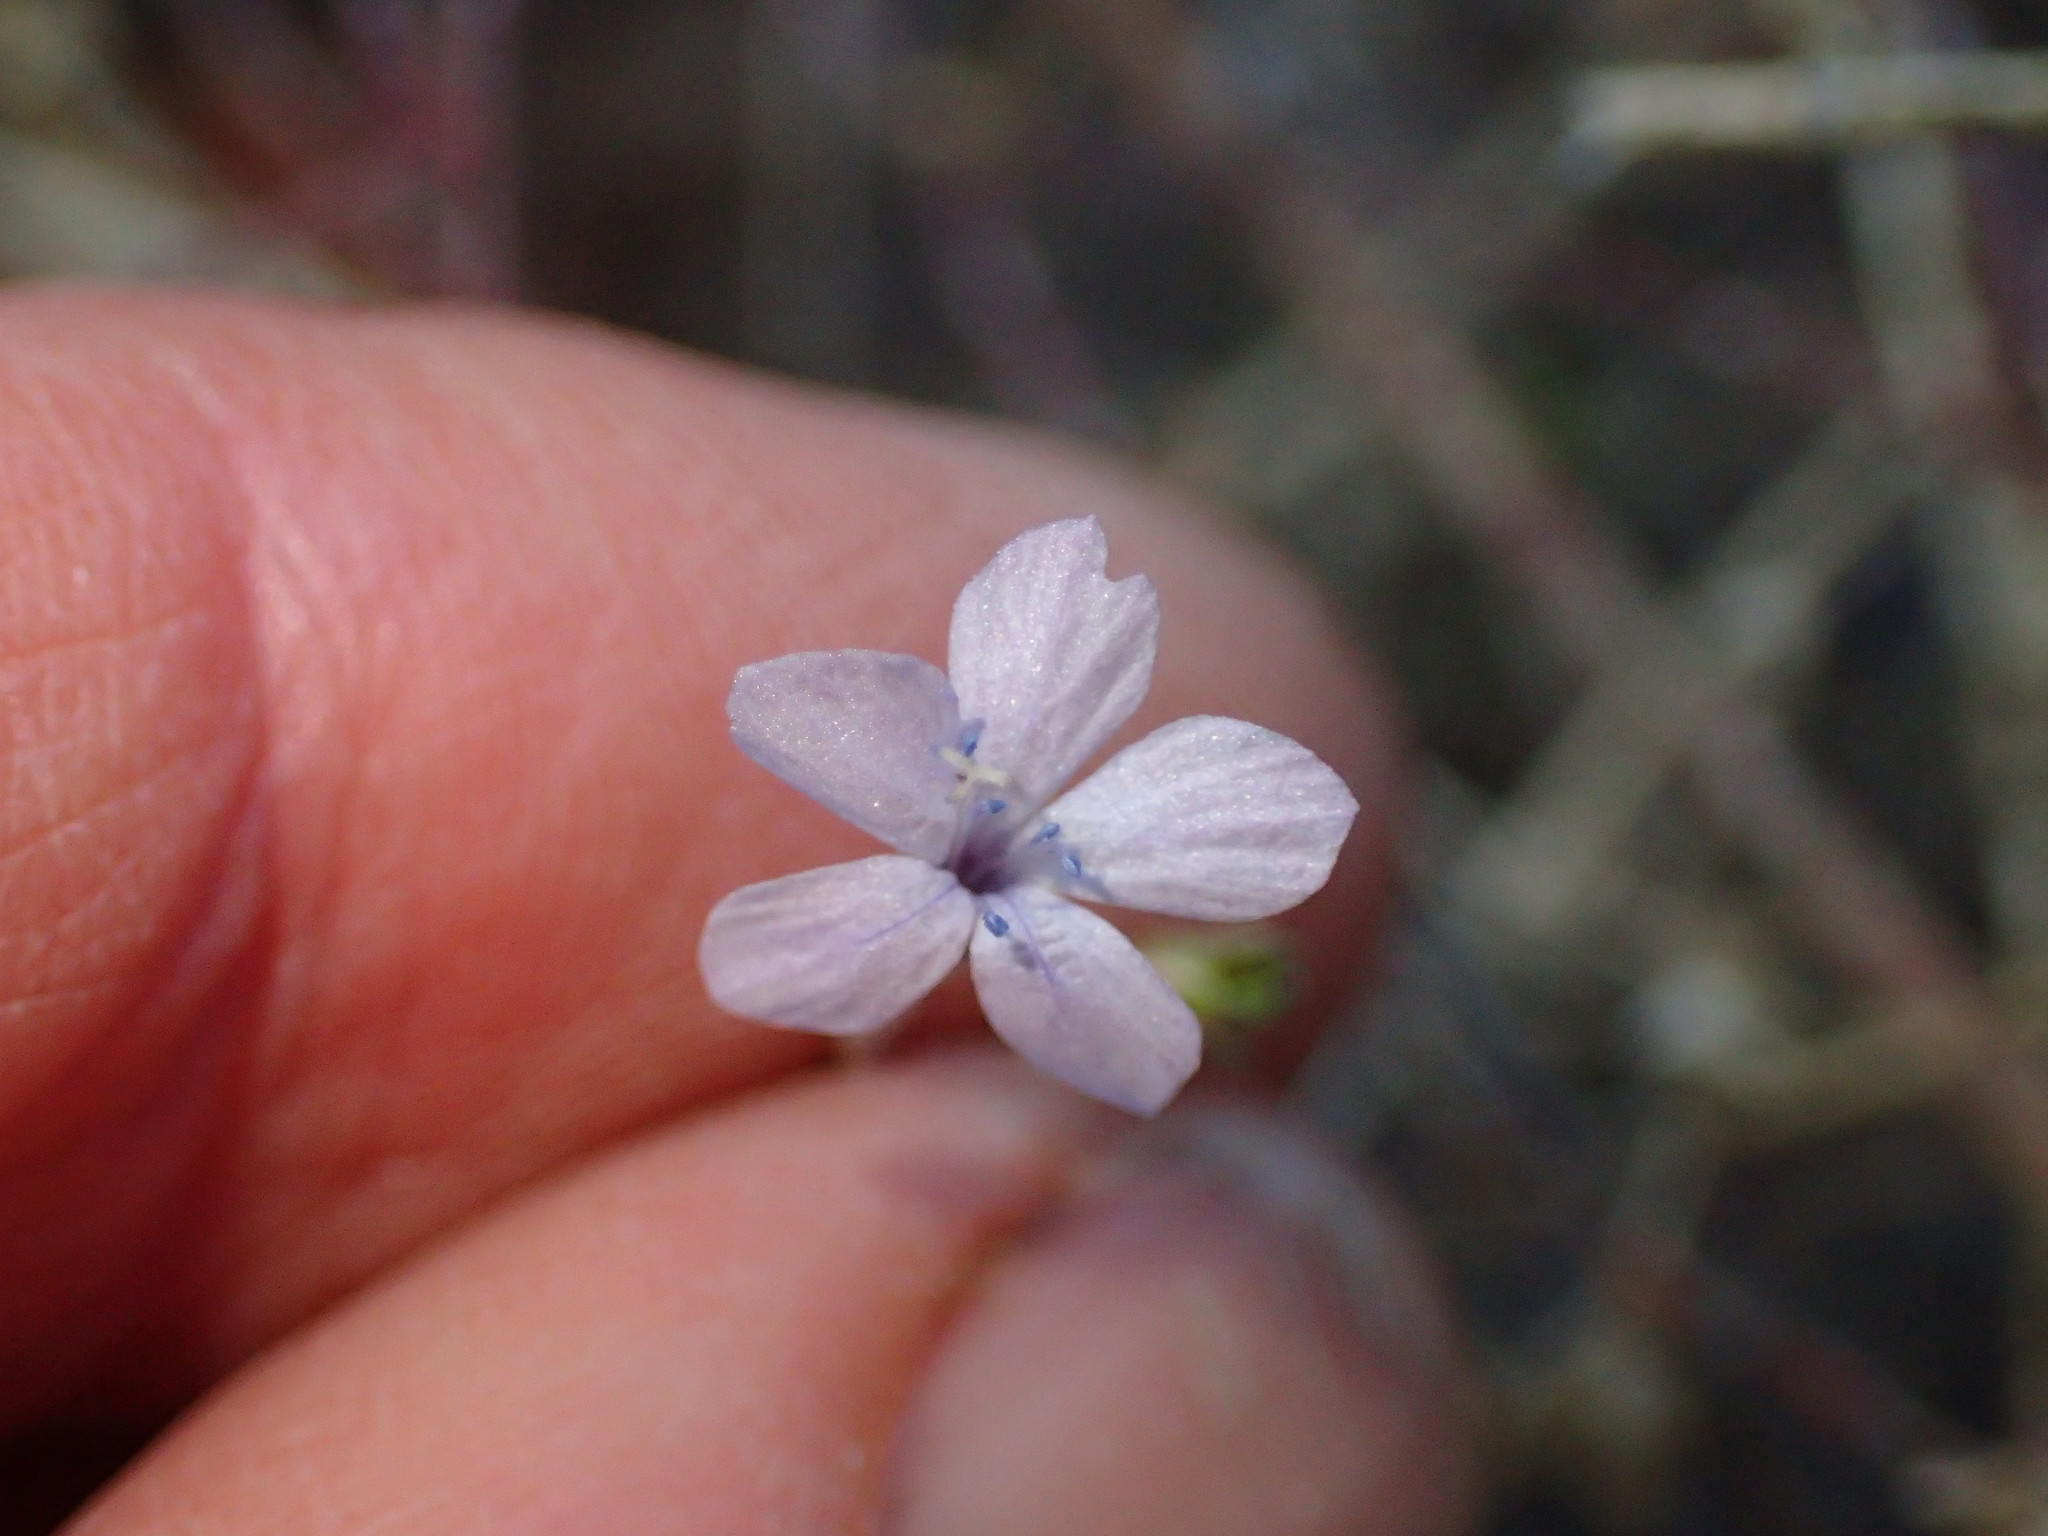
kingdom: Plantae
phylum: Tracheophyta
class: Magnoliopsida
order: Ericales
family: Polemoniaceae
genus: Allophyllum
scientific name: Allophyllum glutinosum
